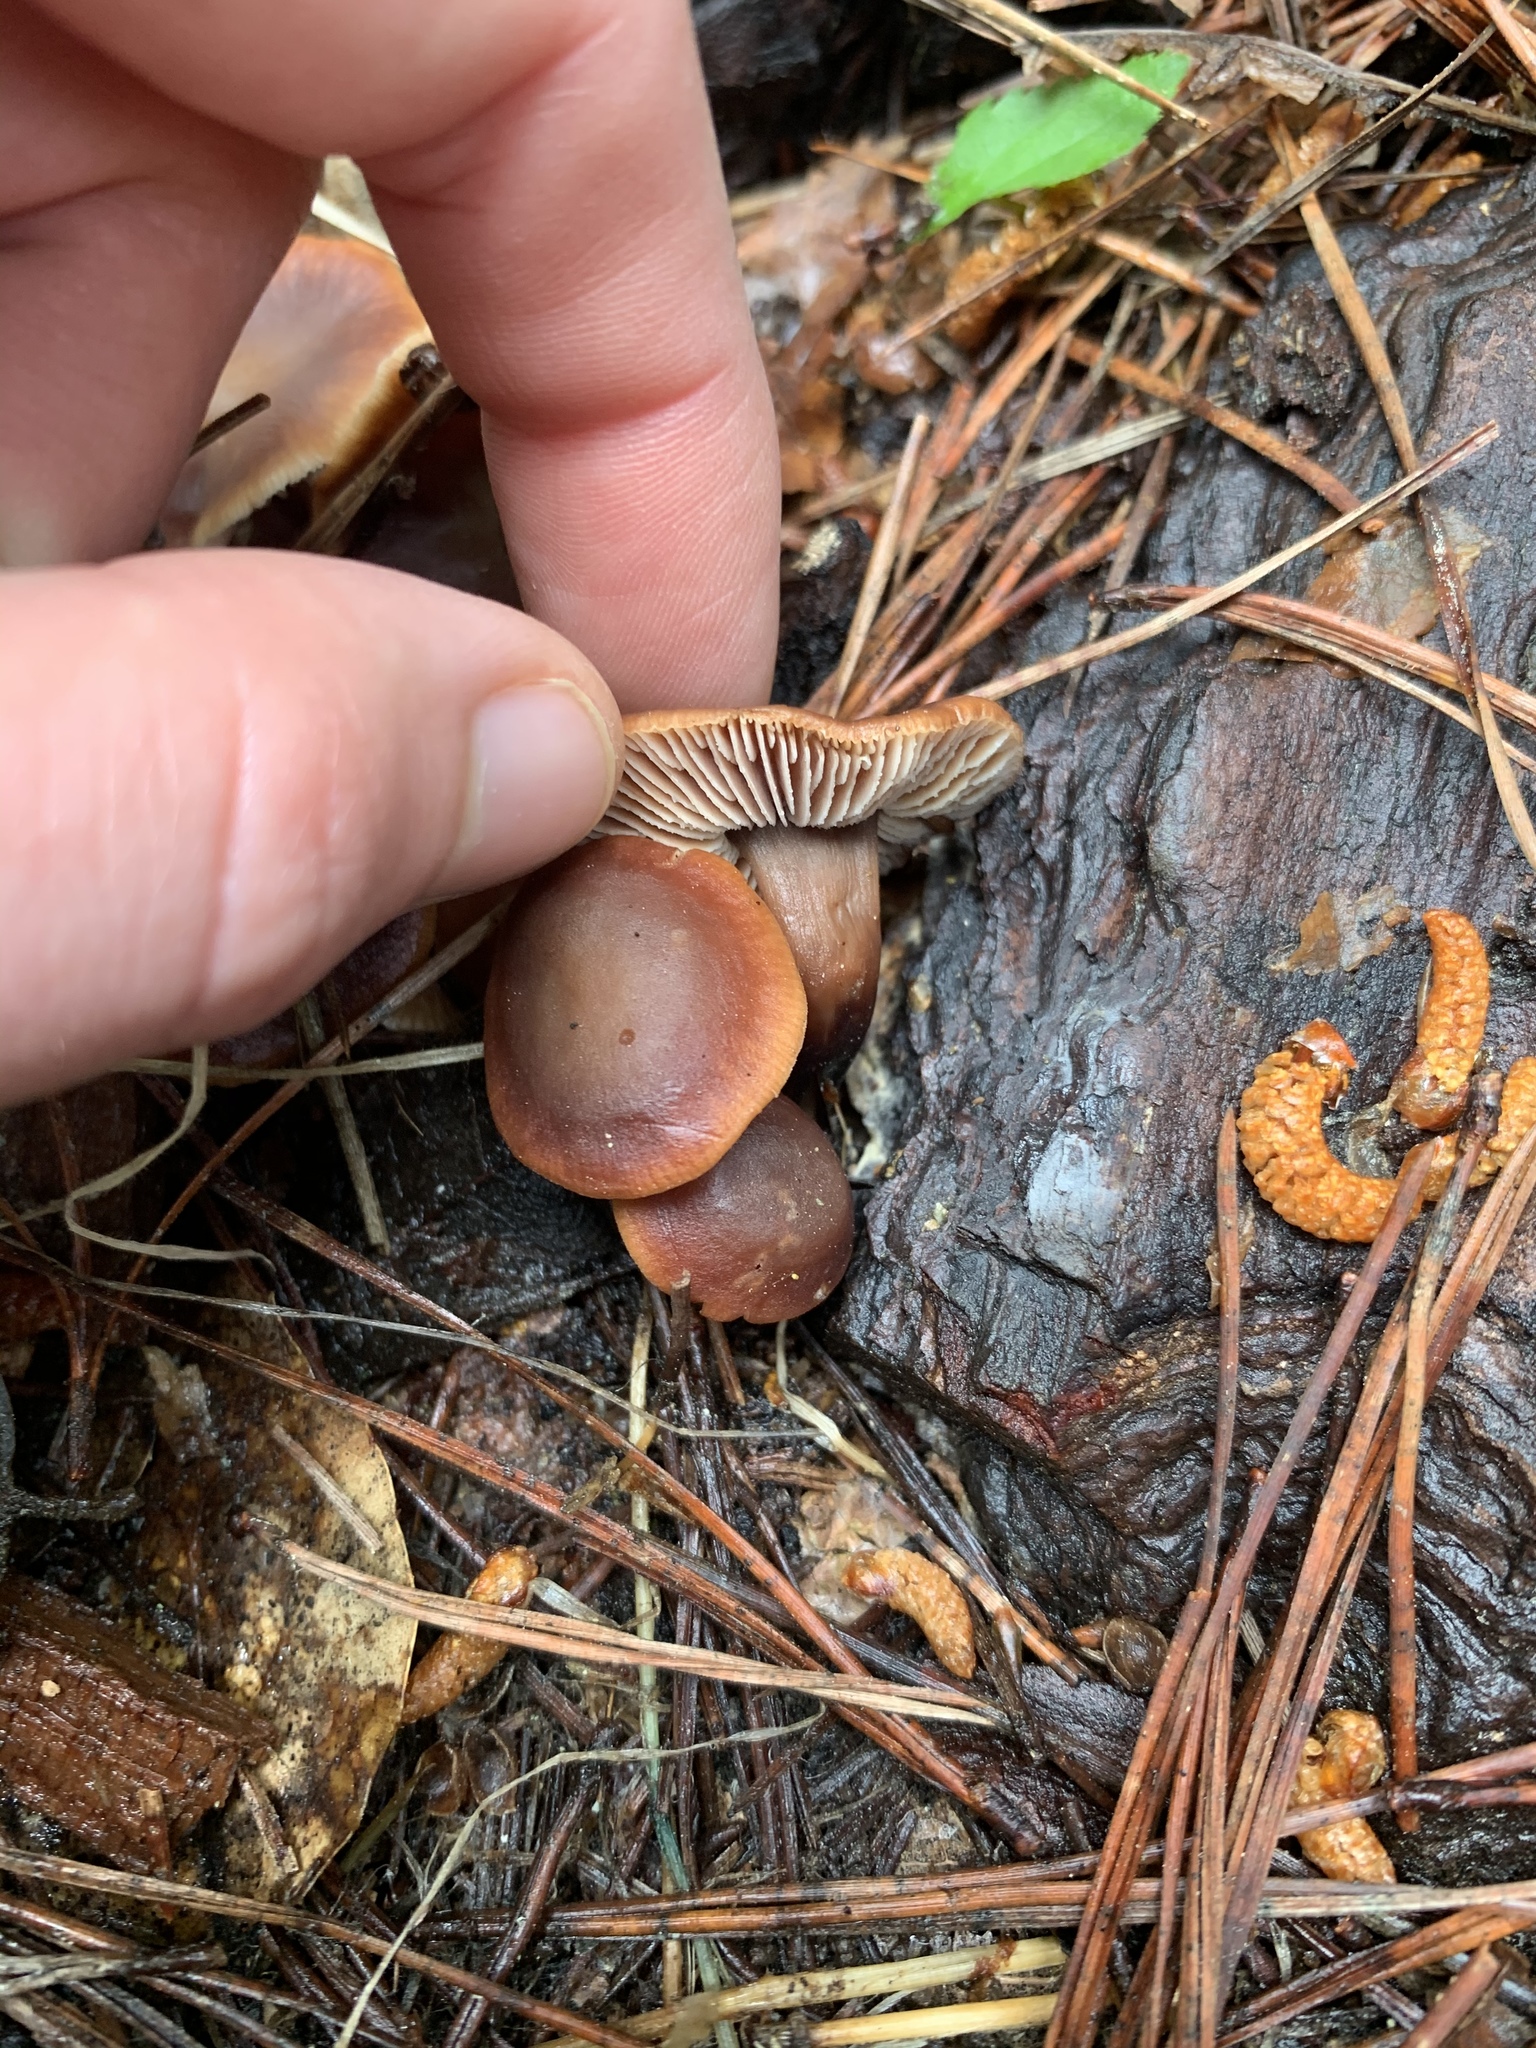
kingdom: Fungi
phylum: Basidiomycota
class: Agaricomycetes
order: Agaricales
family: Omphalotaceae
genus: Gymnopus
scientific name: Gymnopus brassicolens
